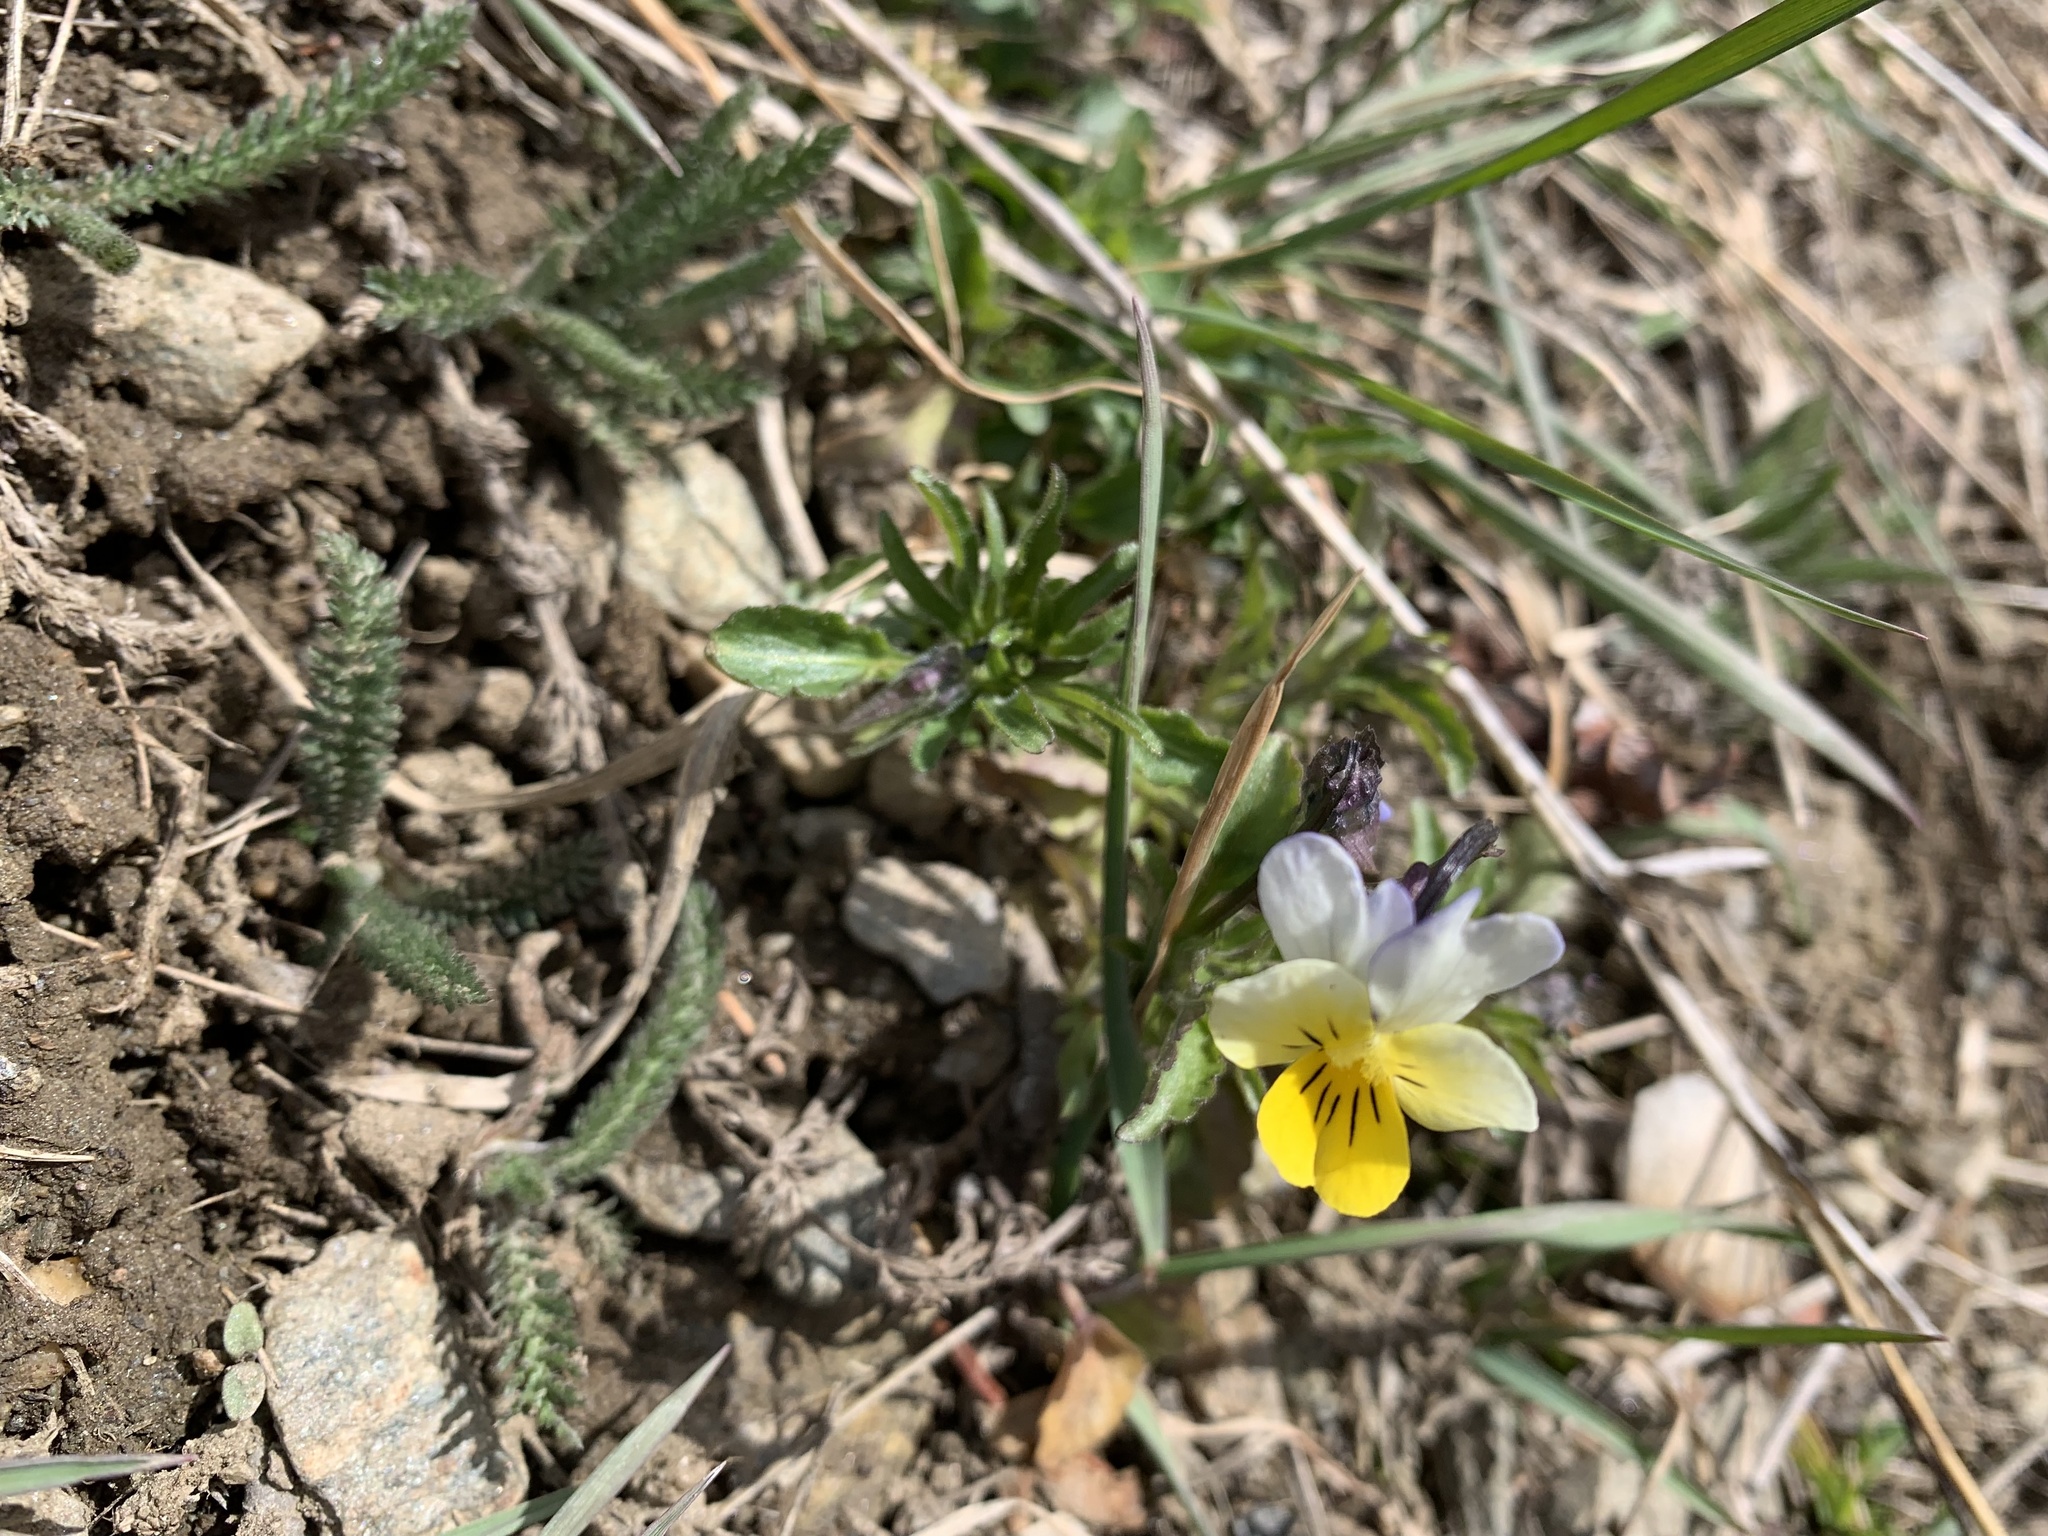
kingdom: Plantae
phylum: Tracheophyta
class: Magnoliopsida
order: Malpighiales
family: Violaceae
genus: Viola
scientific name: Viola arvensis
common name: Field pansy
